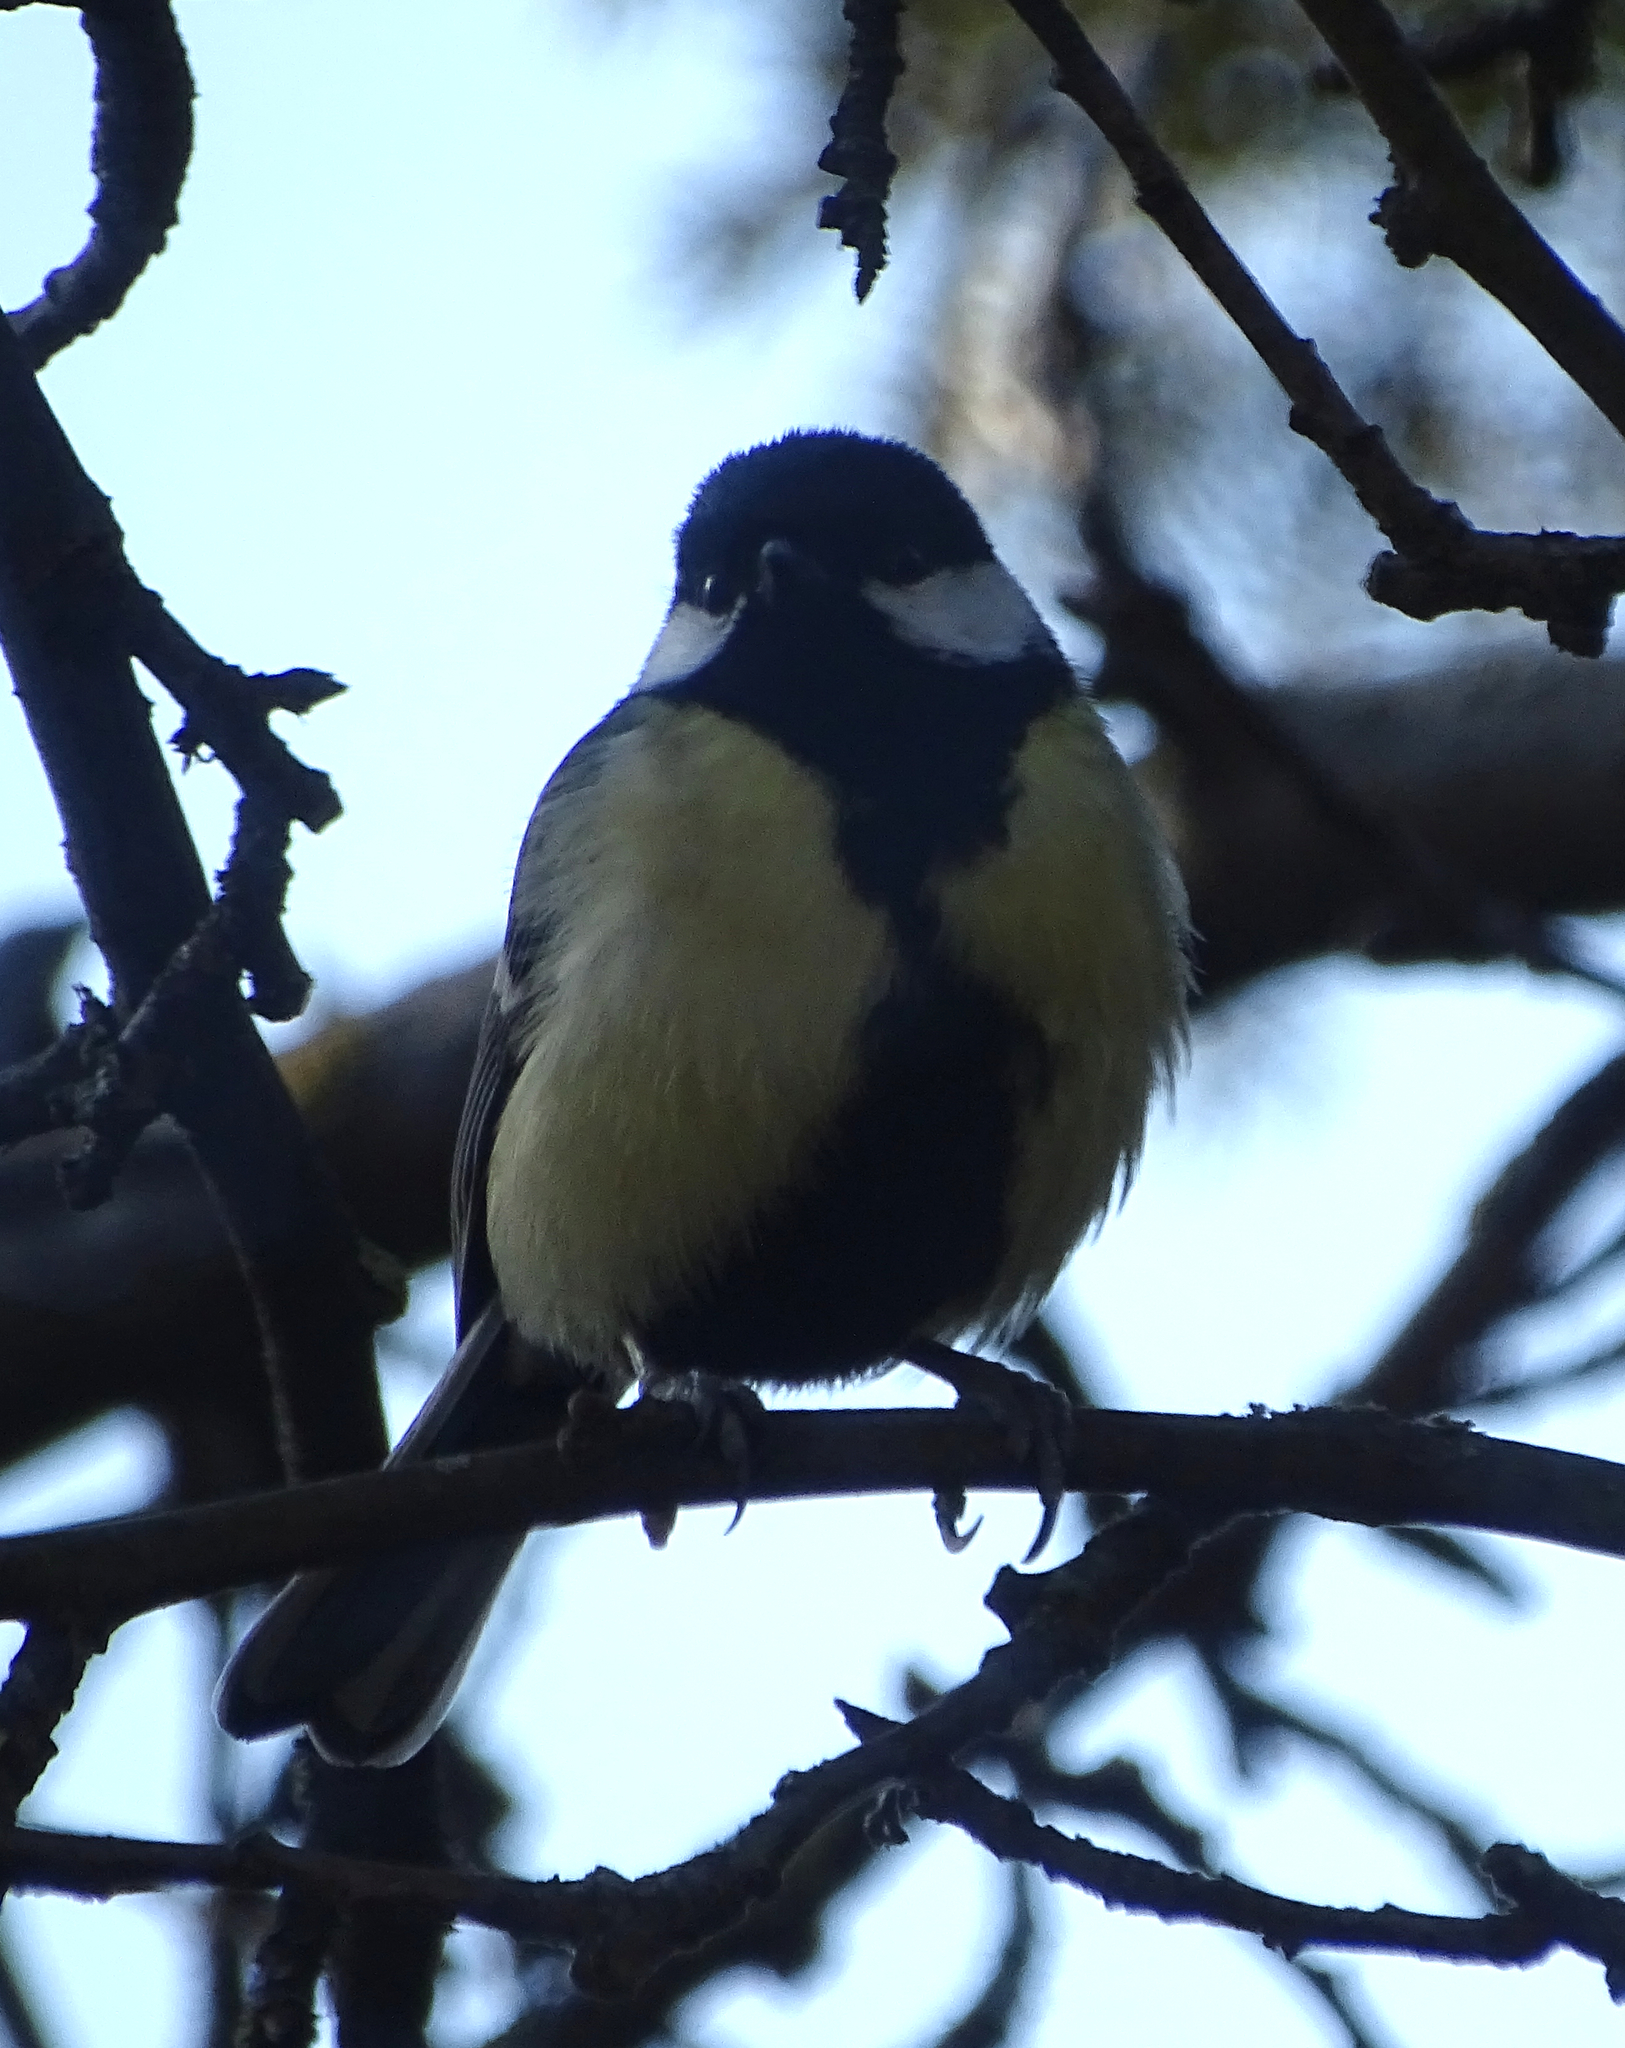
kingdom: Animalia
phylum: Chordata
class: Aves
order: Passeriformes
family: Paridae
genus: Parus
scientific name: Parus major
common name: Great tit
